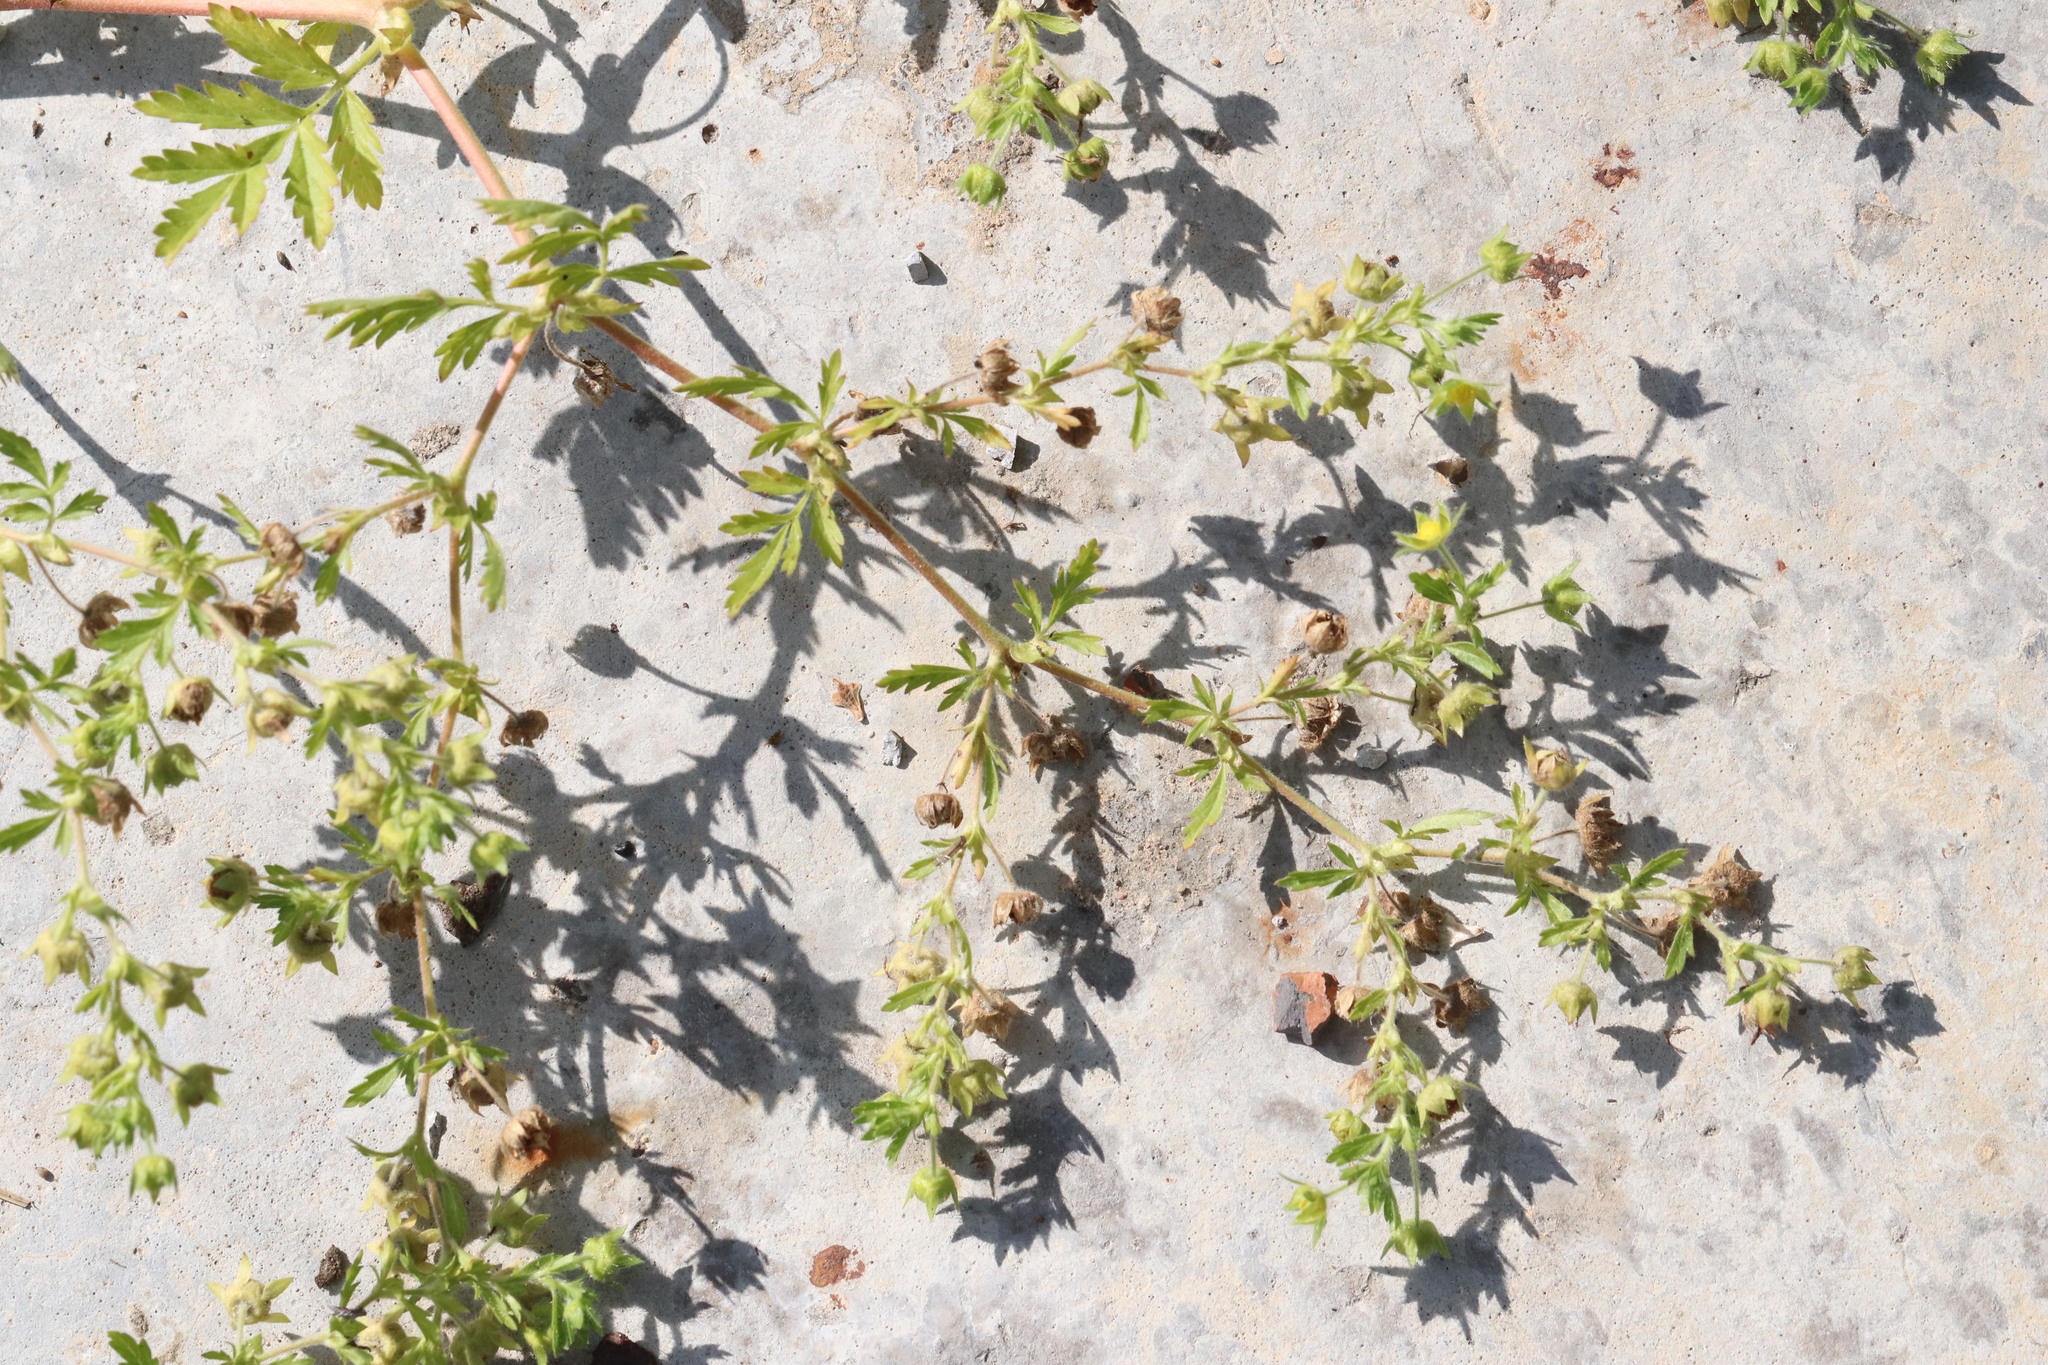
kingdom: Plantae
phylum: Tracheophyta
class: Magnoliopsida
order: Rosales
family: Rosaceae
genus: Potentilla
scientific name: Potentilla supina
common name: Prostrate cinquefoil
